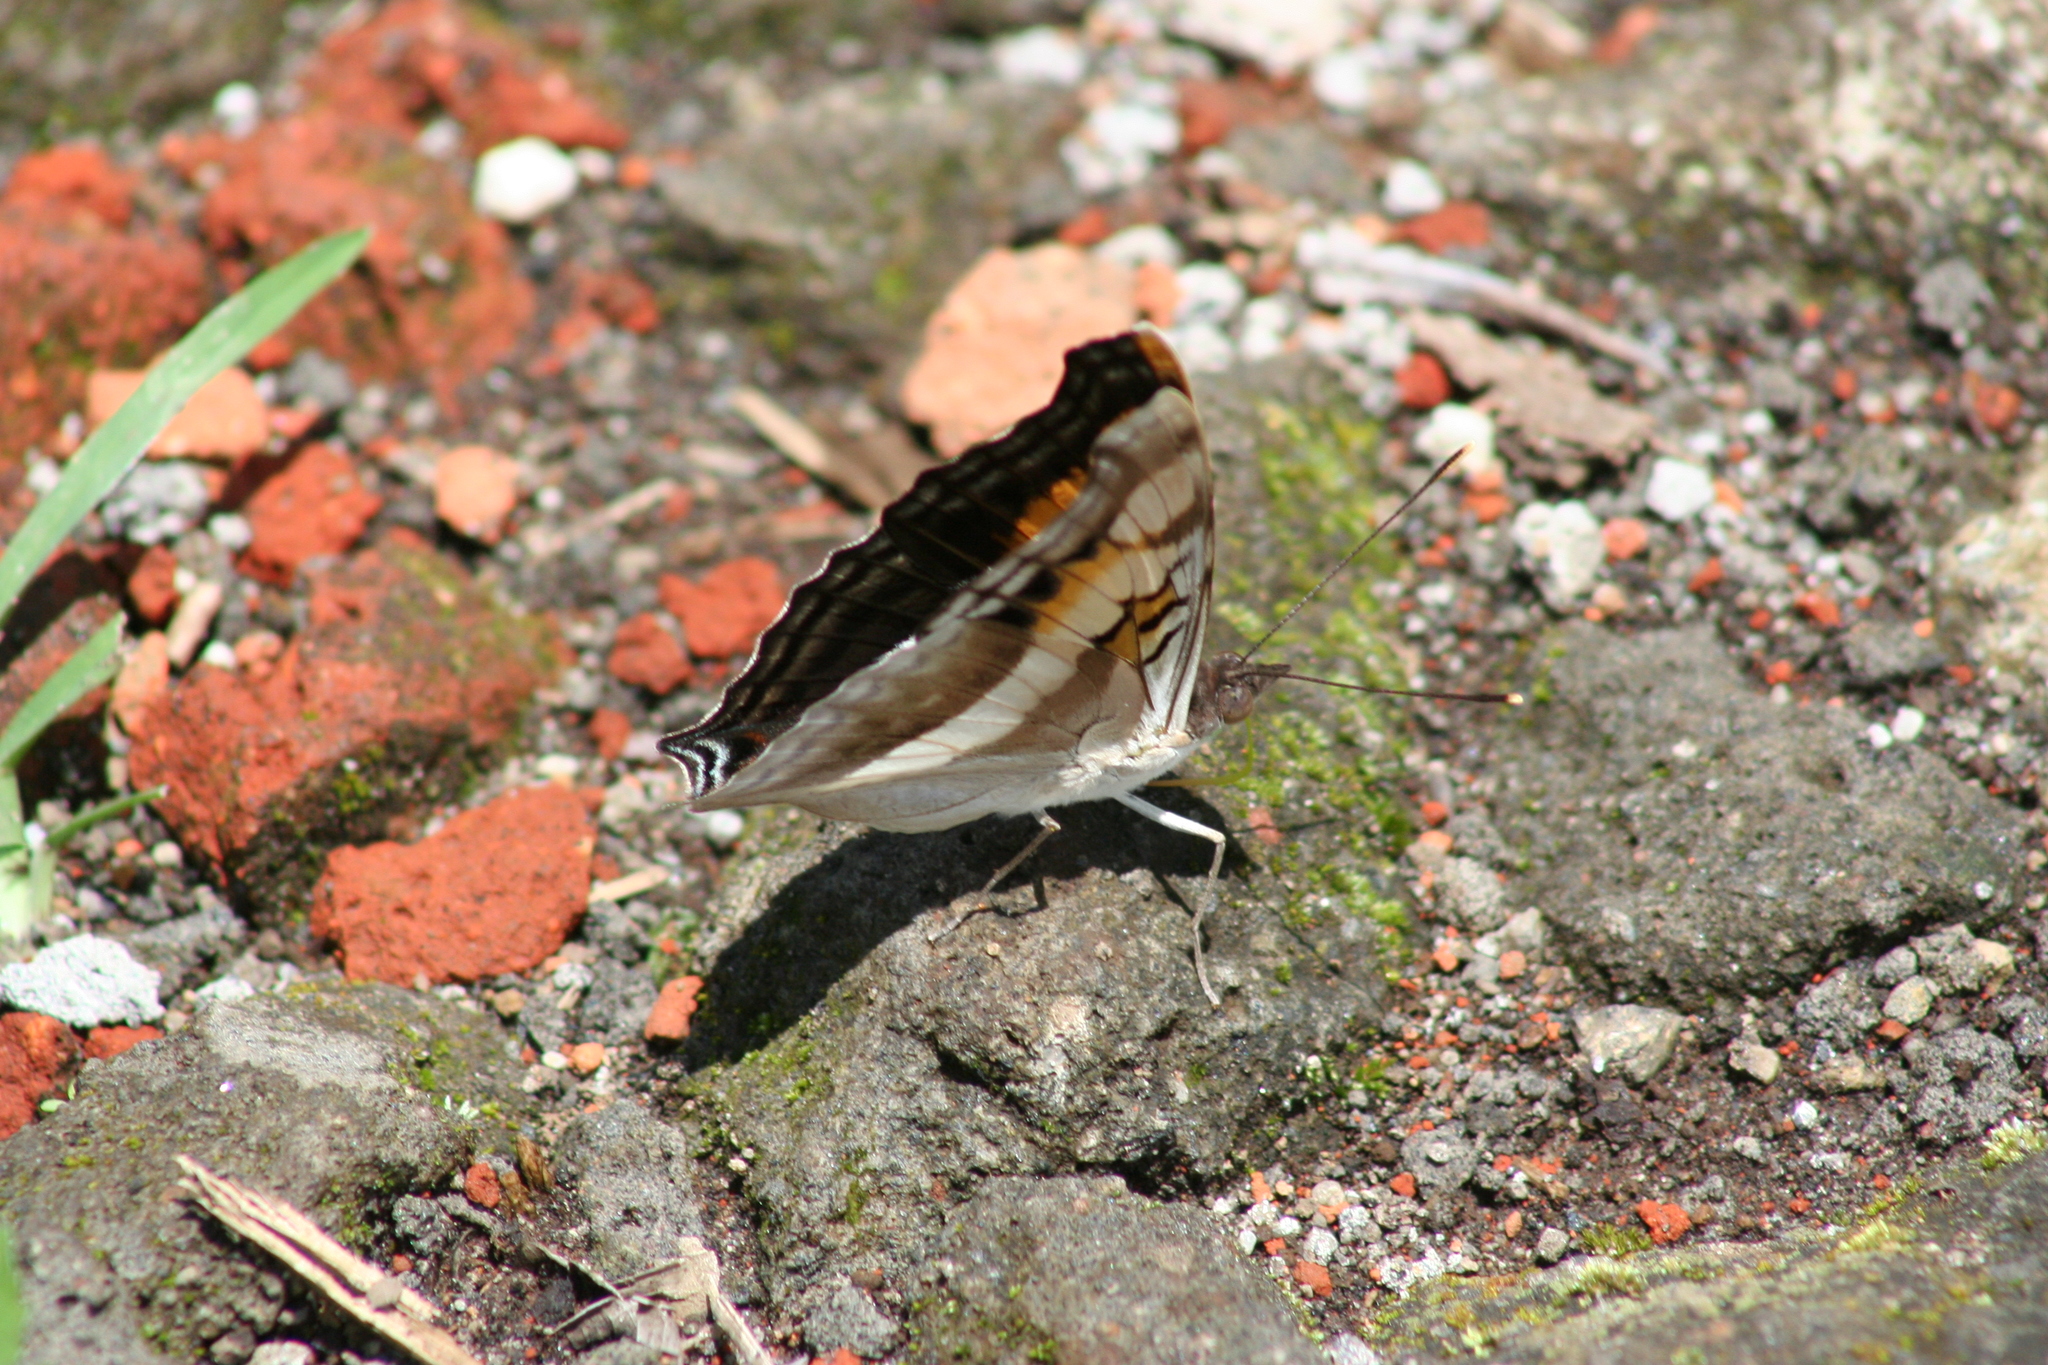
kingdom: Animalia
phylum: Arthropoda
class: Insecta
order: Lepidoptera
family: Nymphalidae
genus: Doxocopa
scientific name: Doxocopa laure
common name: Silver emperor
